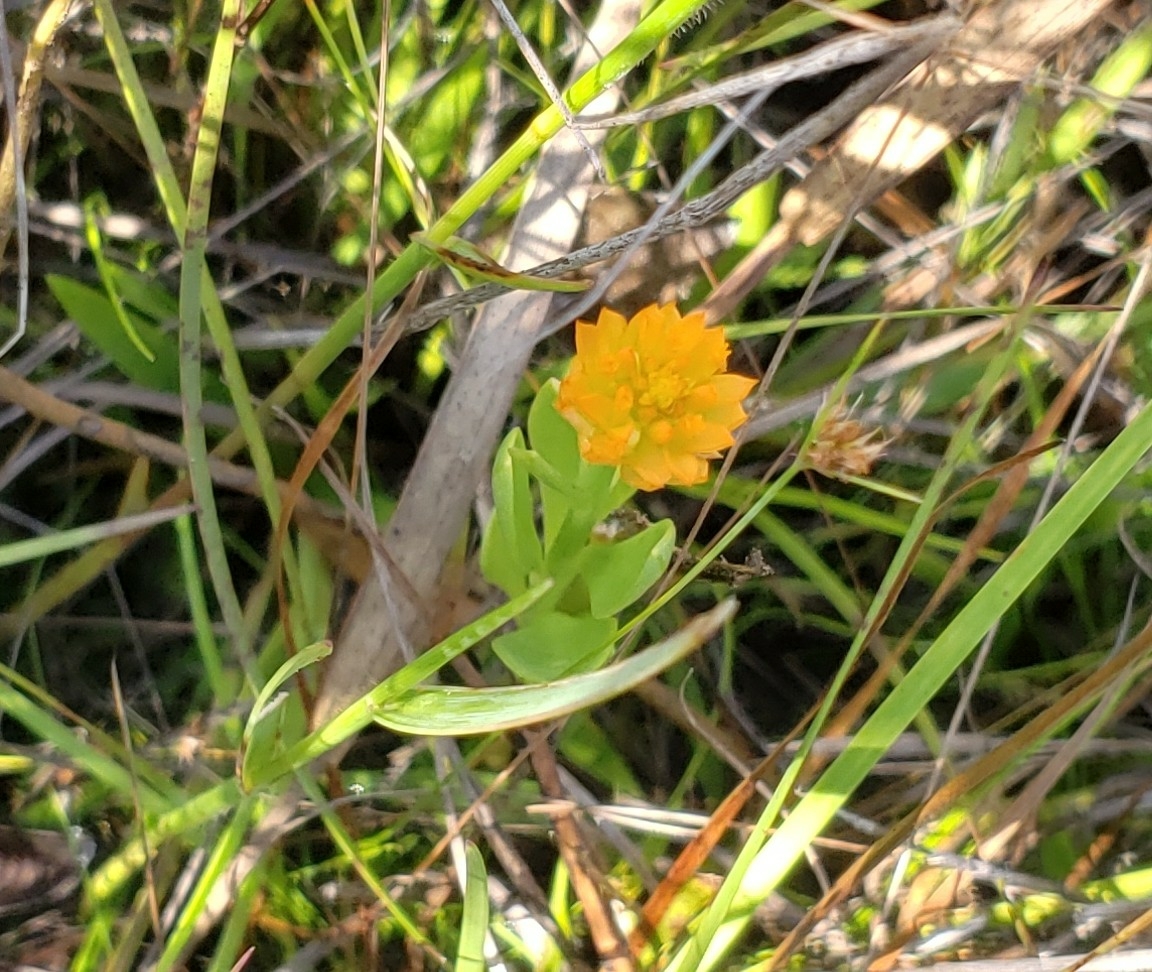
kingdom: Plantae
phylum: Tracheophyta
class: Magnoliopsida
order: Fabales
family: Polygalaceae
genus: Polygala
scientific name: Polygala lutea
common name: Orange milkwort
